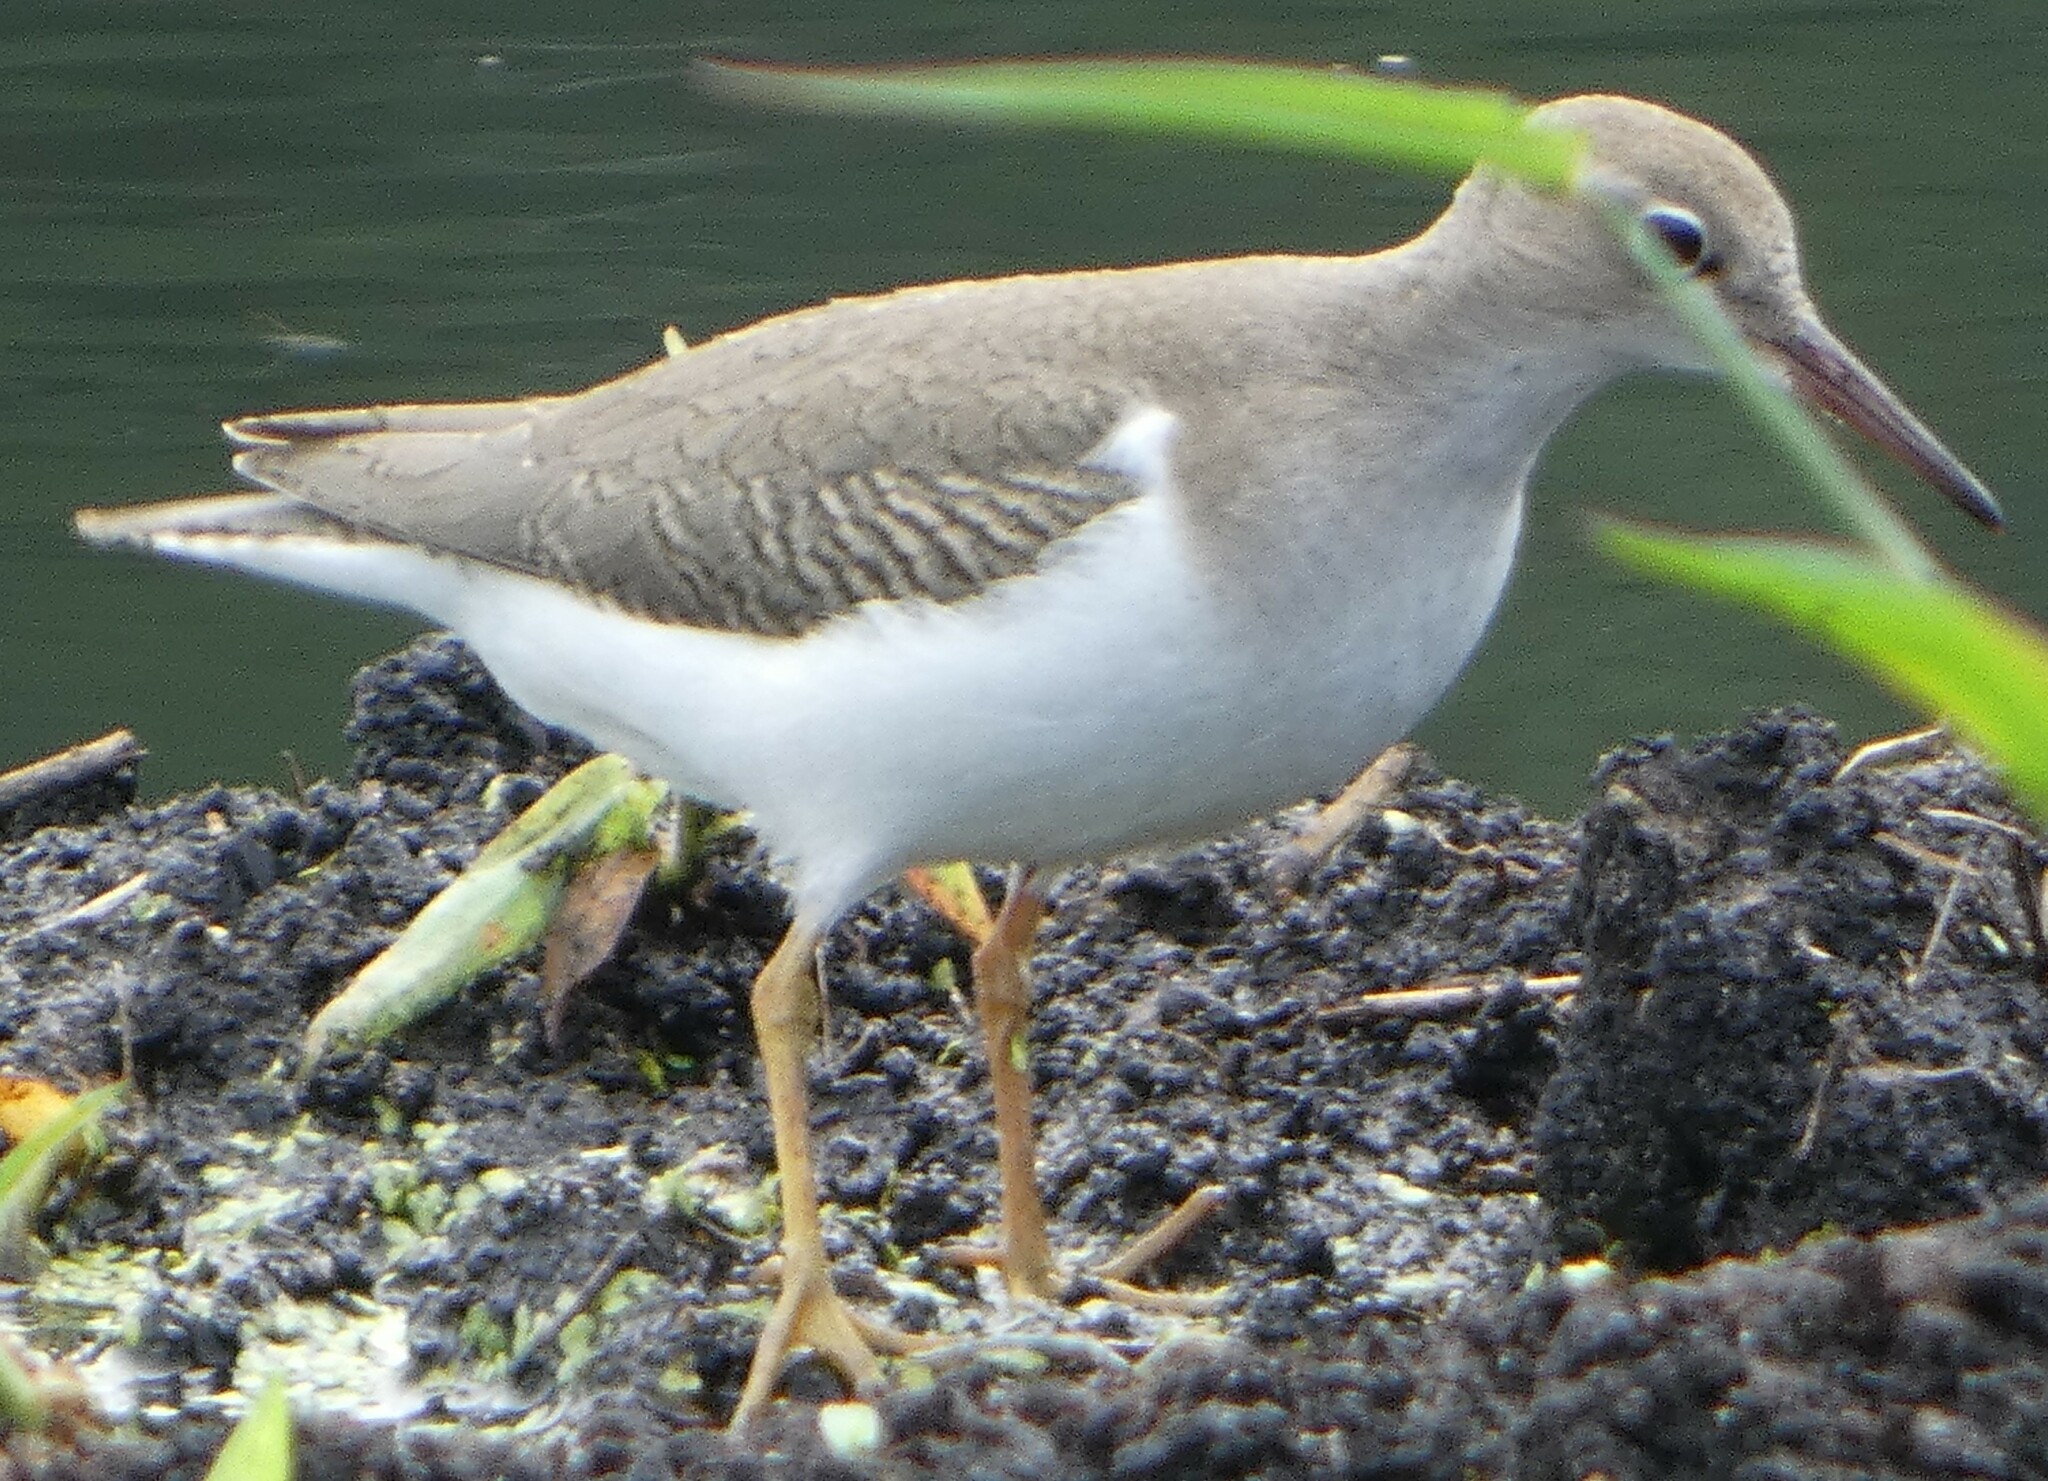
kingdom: Animalia
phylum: Chordata
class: Aves
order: Charadriiformes
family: Scolopacidae
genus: Actitis
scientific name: Actitis macularius
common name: Spotted sandpiper
